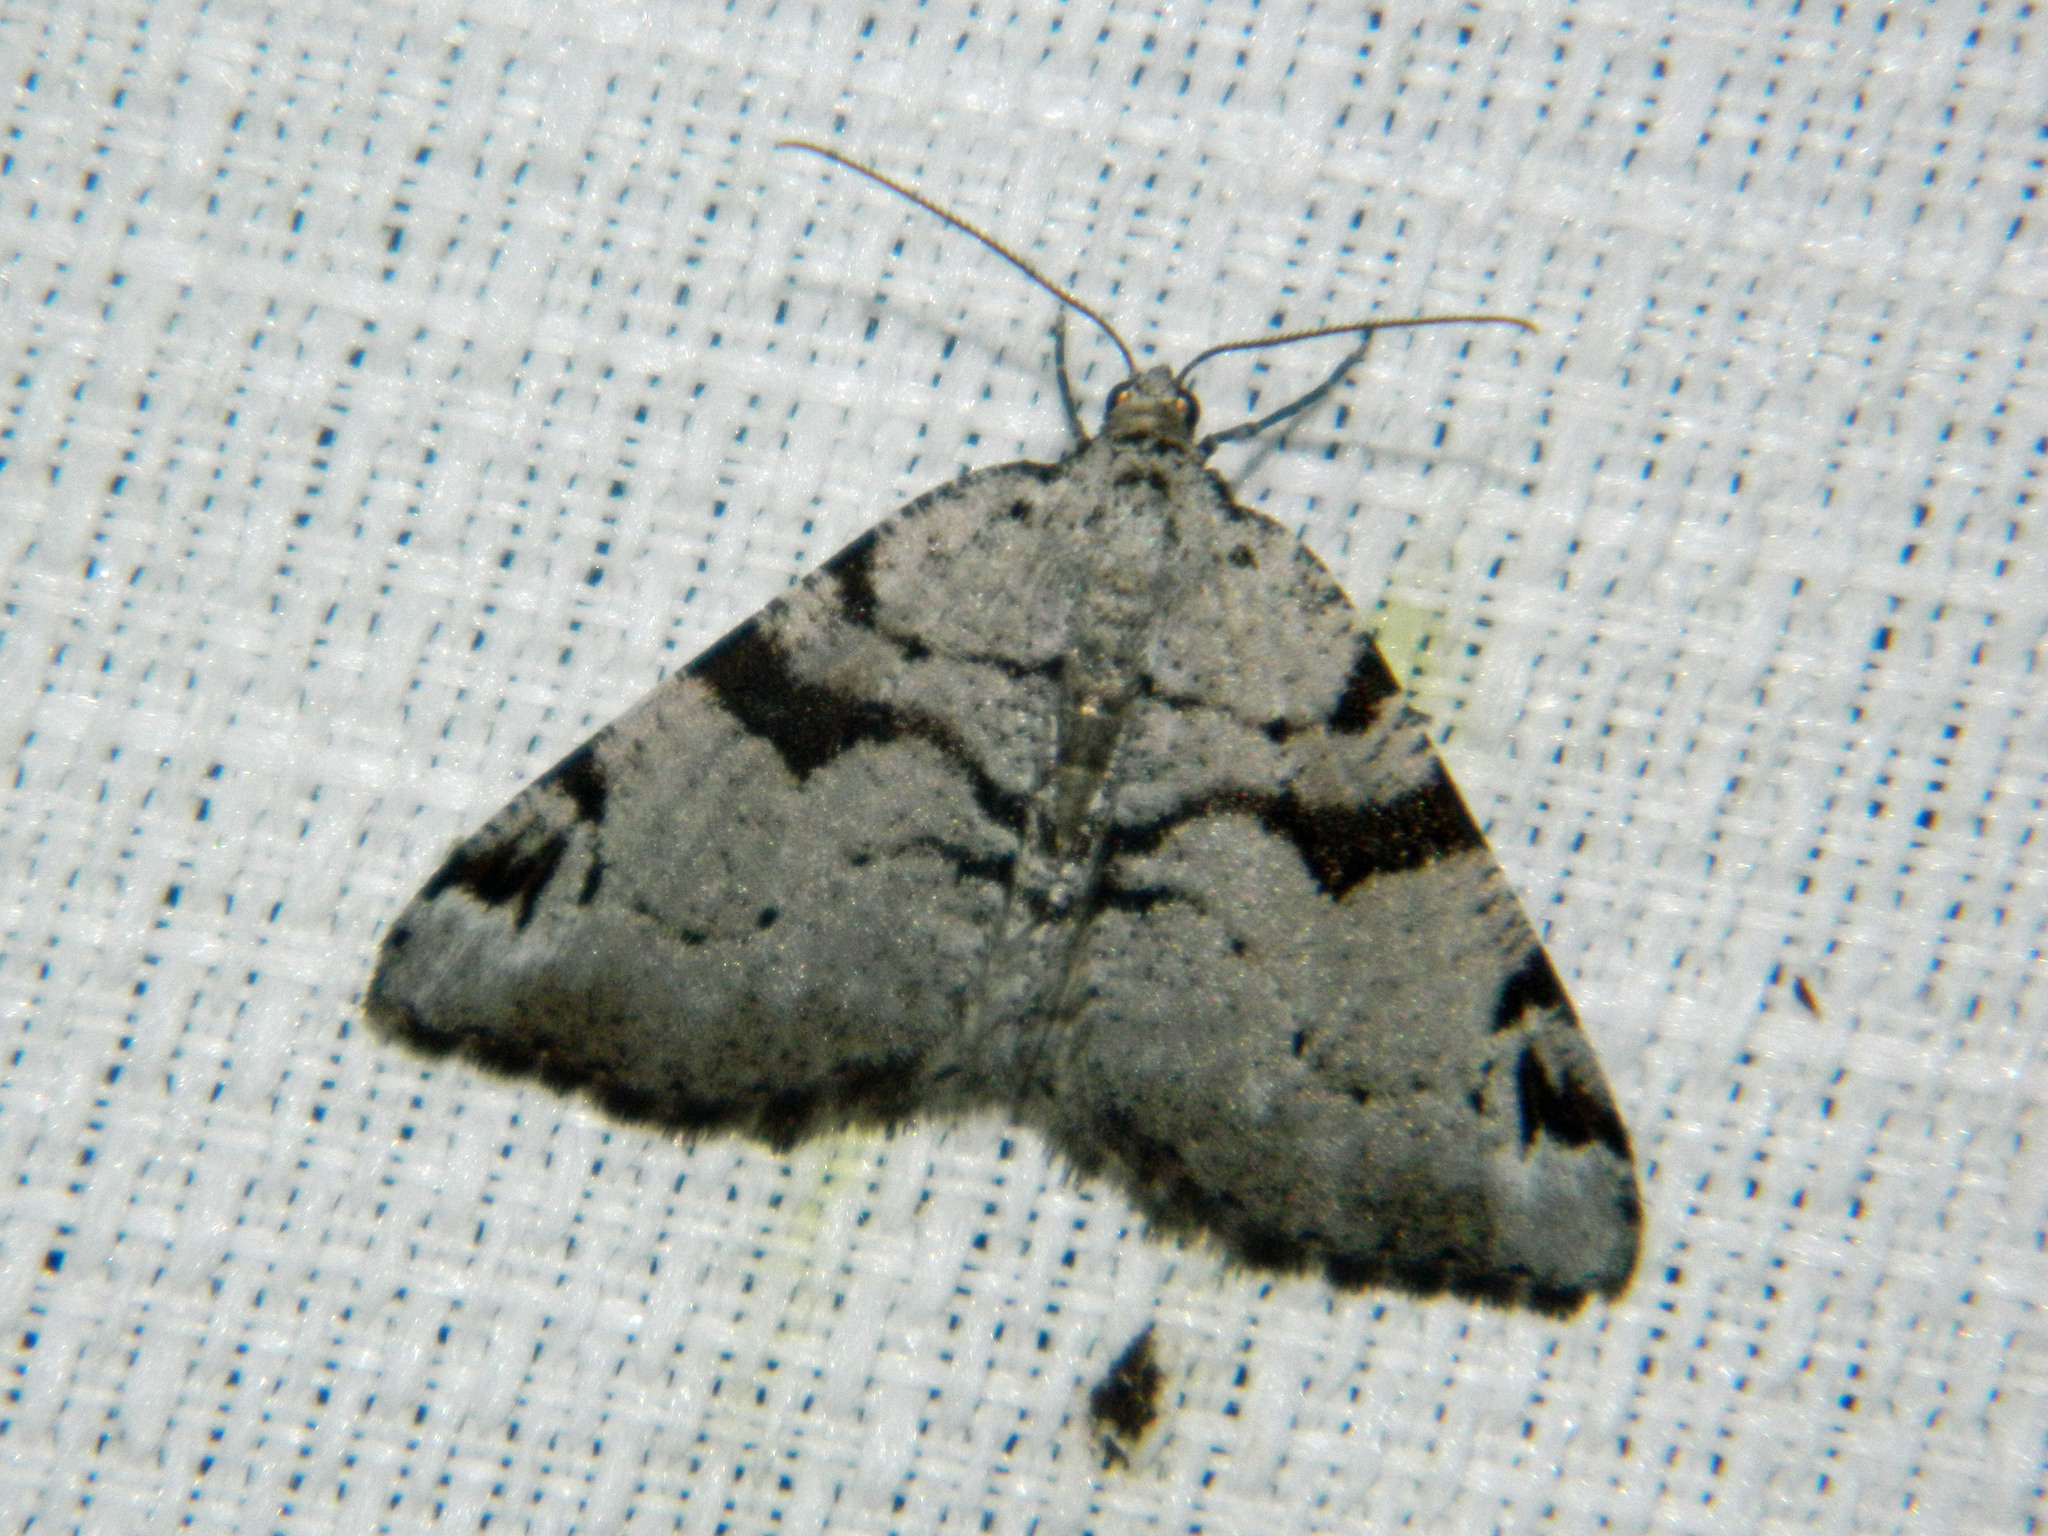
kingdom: Animalia
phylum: Arthropoda
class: Insecta
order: Lepidoptera
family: Geometridae
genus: Macaria
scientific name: Macaria bitactata
